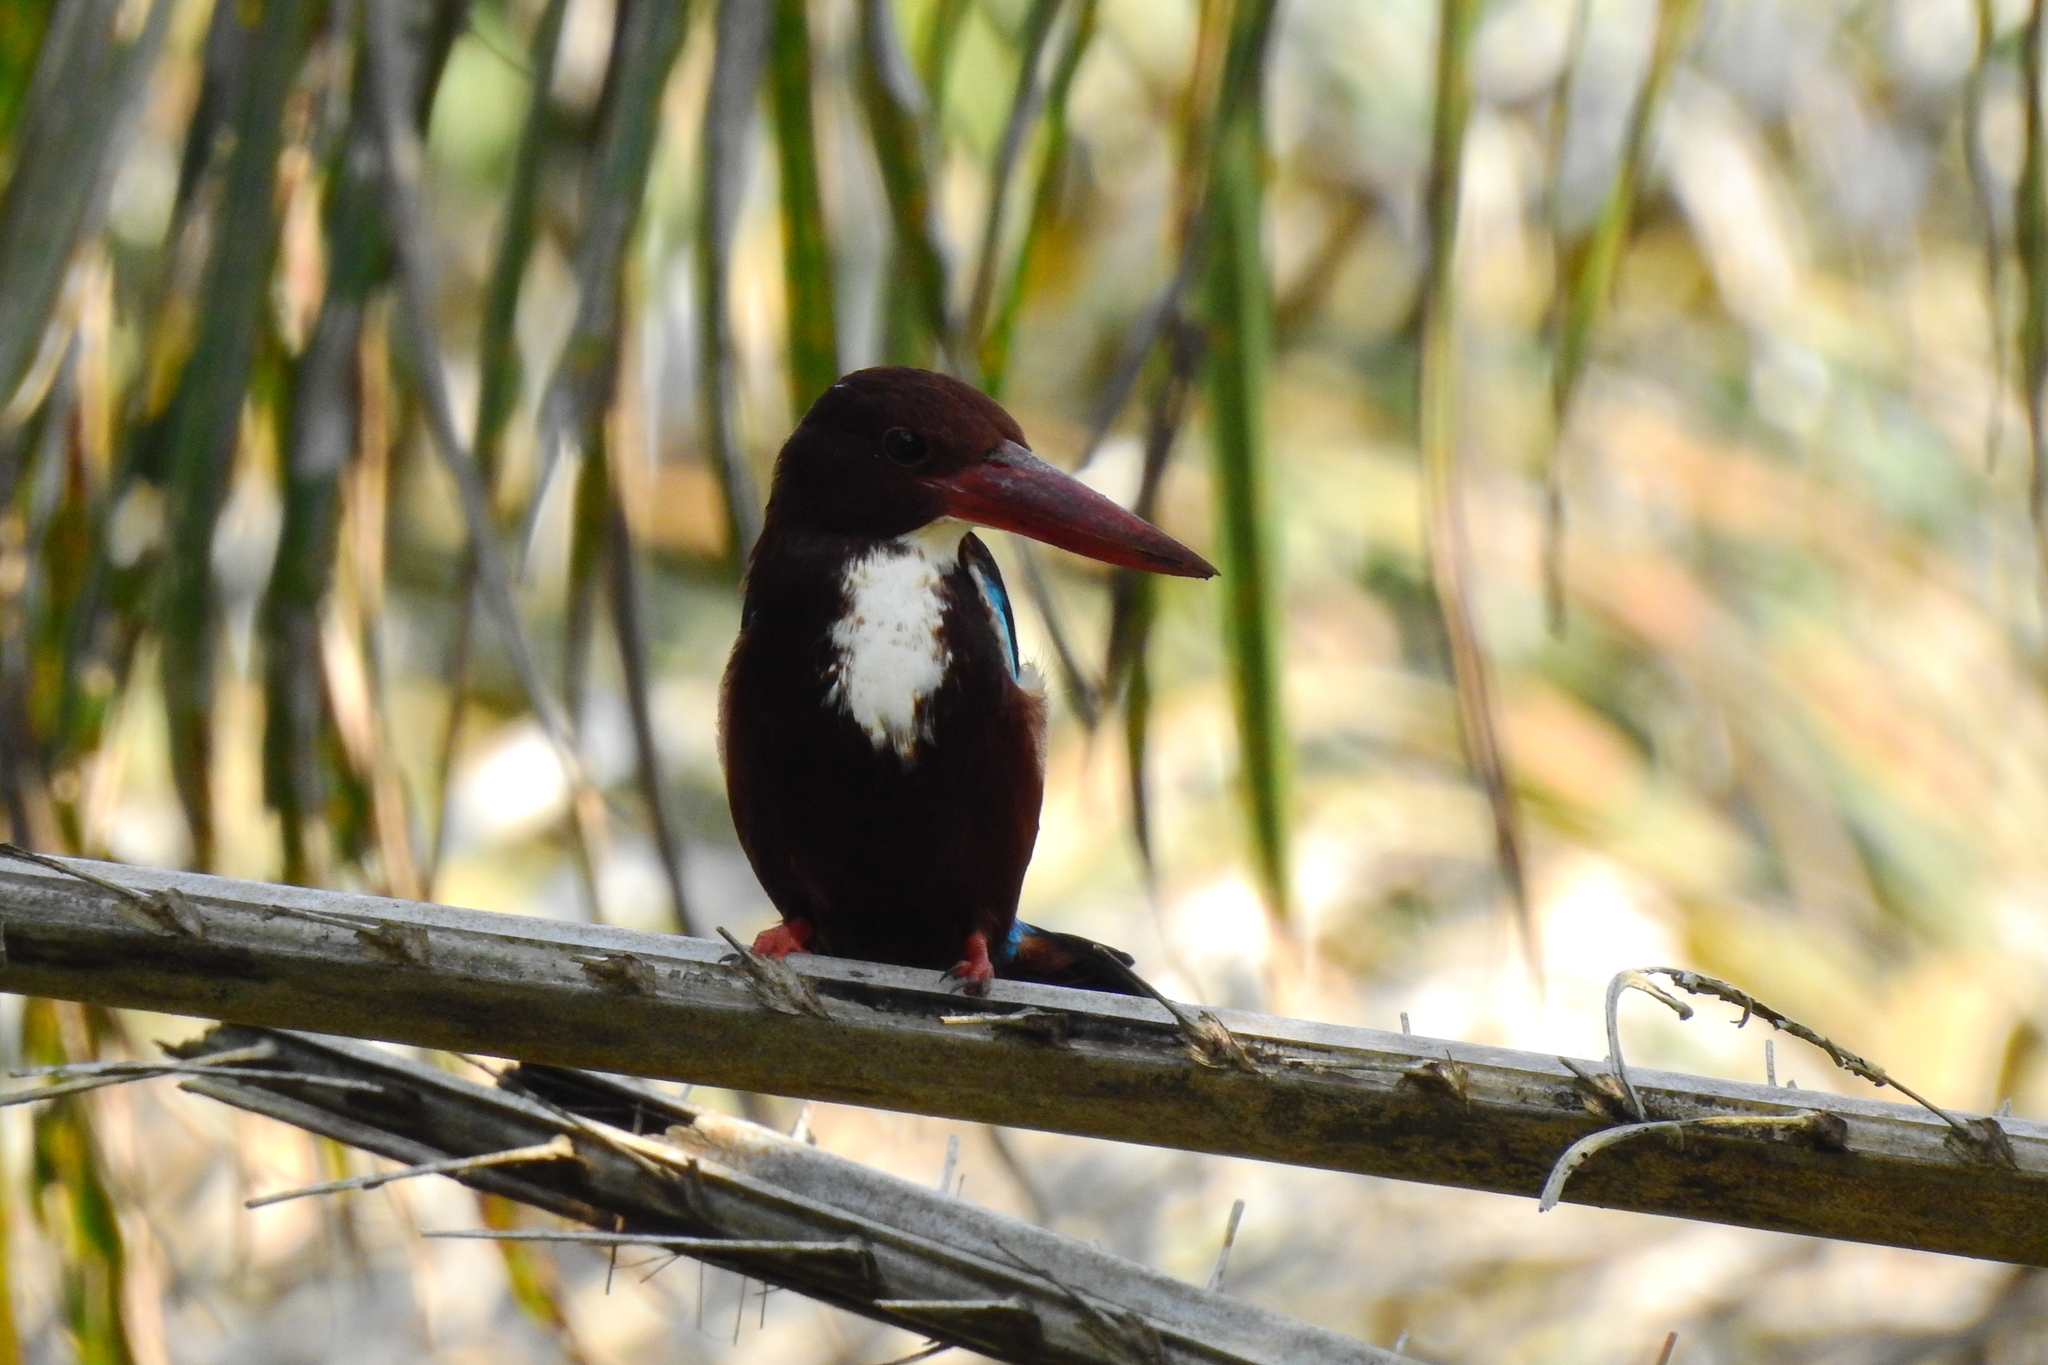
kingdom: Animalia
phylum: Chordata
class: Aves
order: Coraciiformes
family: Alcedinidae
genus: Halcyon
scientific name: Halcyon smyrnensis
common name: White-throated kingfisher
